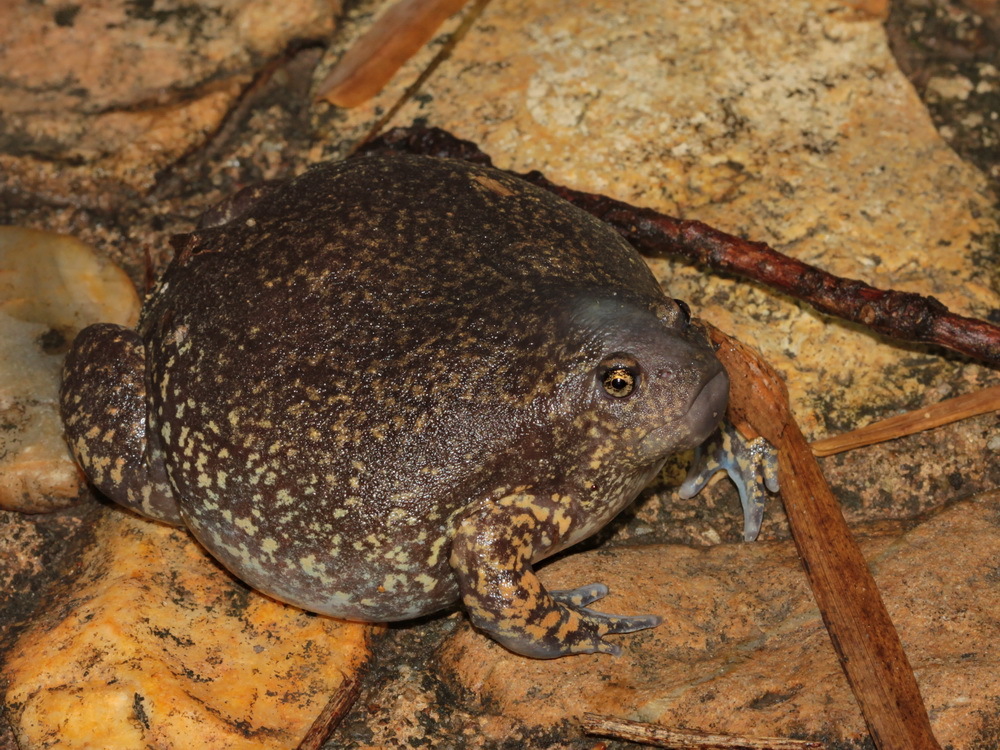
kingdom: Animalia
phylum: Chordata
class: Amphibia
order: Anura
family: Microhylidae
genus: Glyphoglossus
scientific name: Glyphoglossus molossus
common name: Balloon frog
